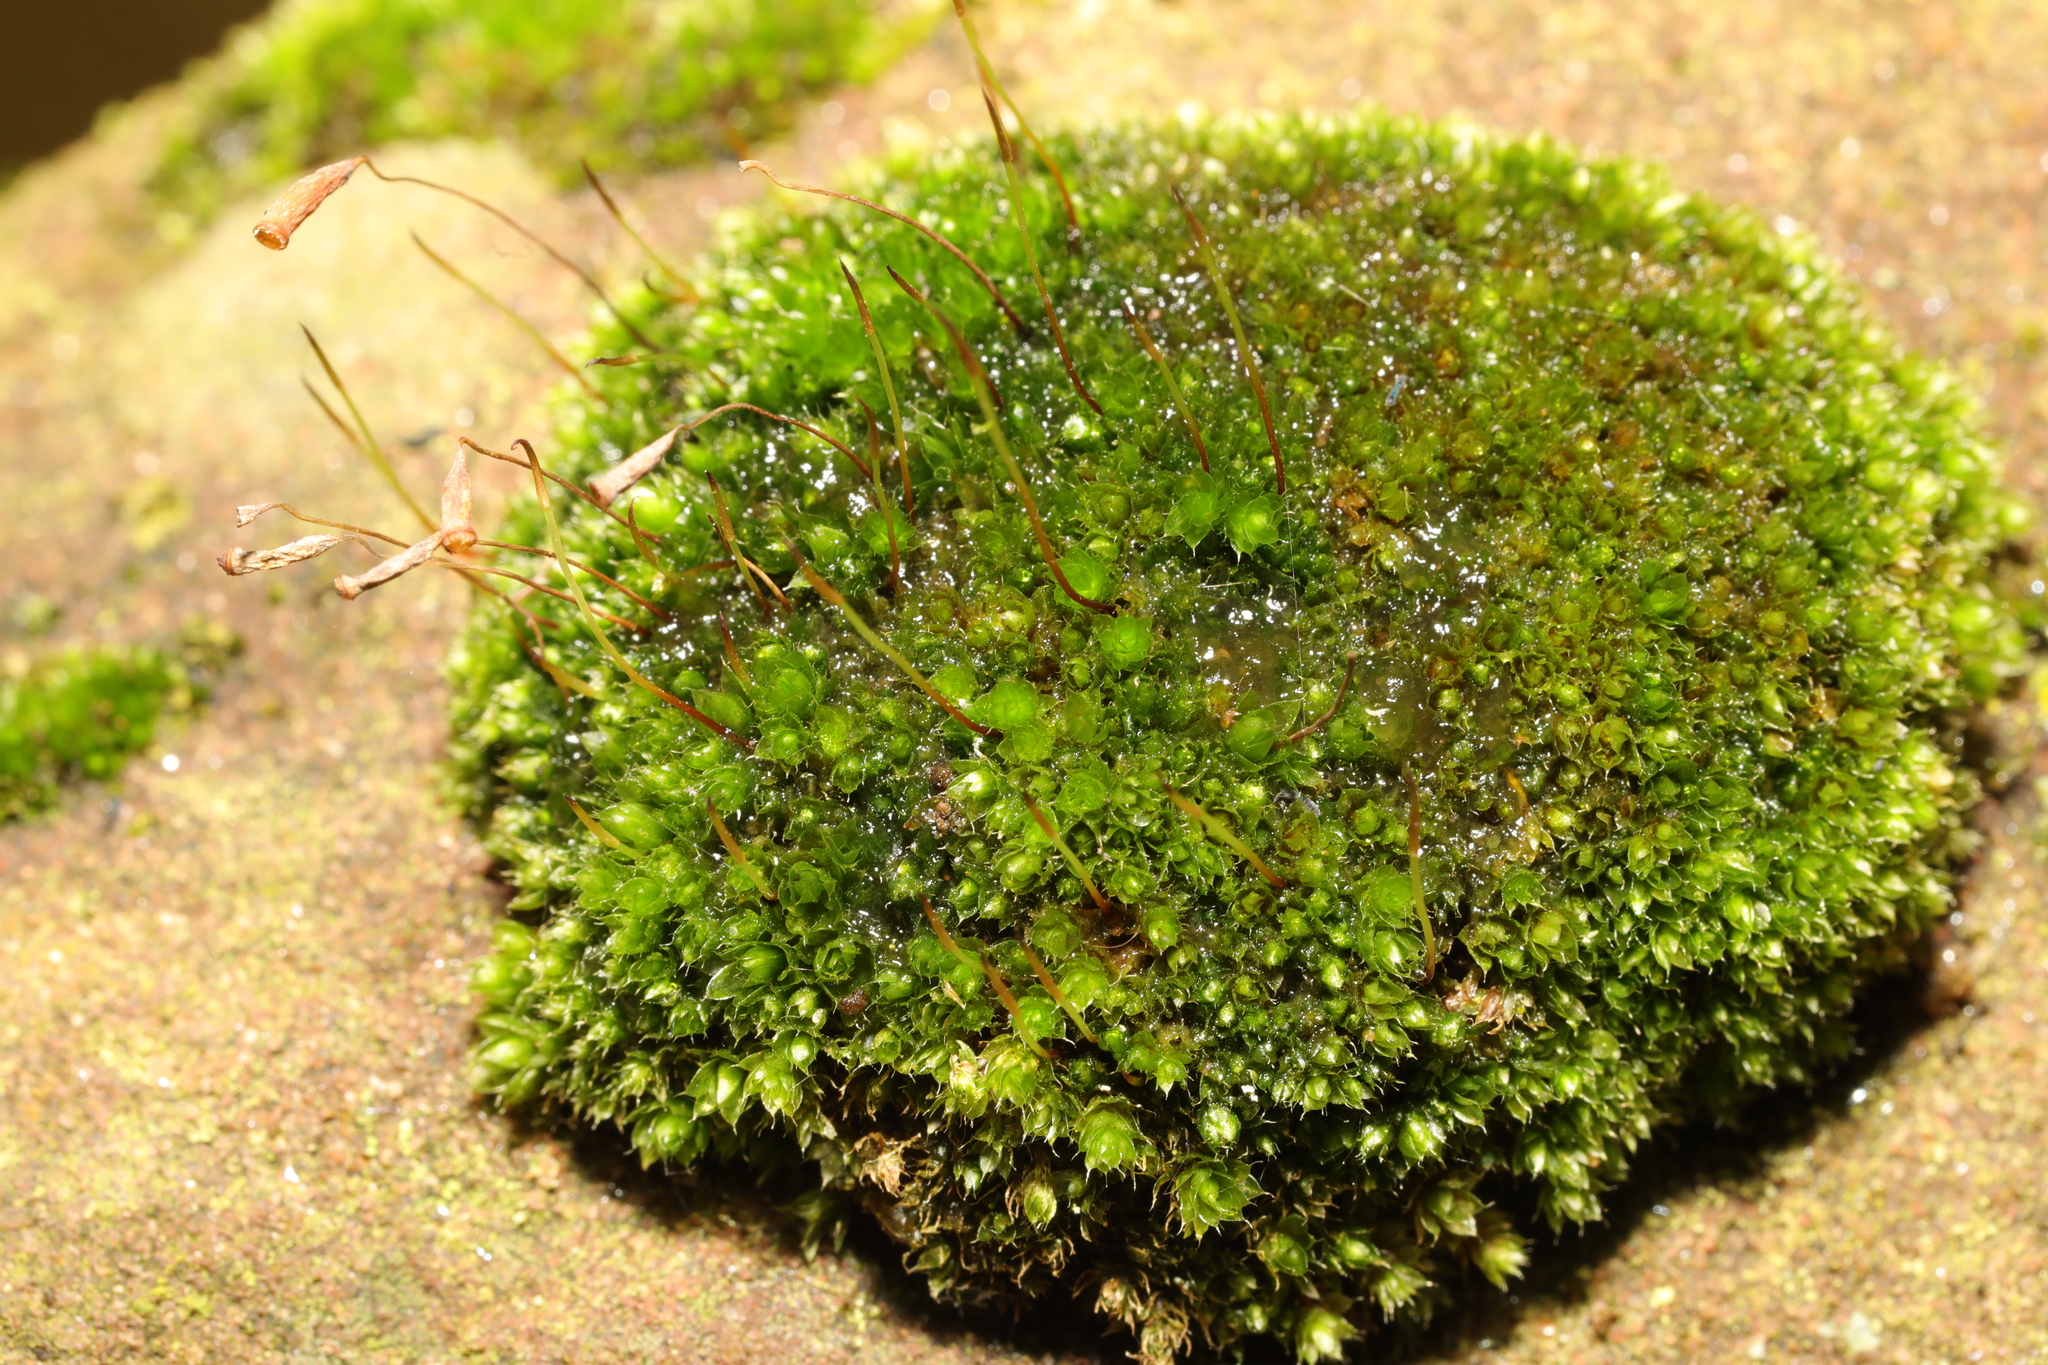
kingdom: Plantae
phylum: Bryophyta
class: Bryopsida
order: Bryales
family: Bryaceae
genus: Rosulabryum
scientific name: Rosulabryum capillare
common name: Capillary thread-moss
